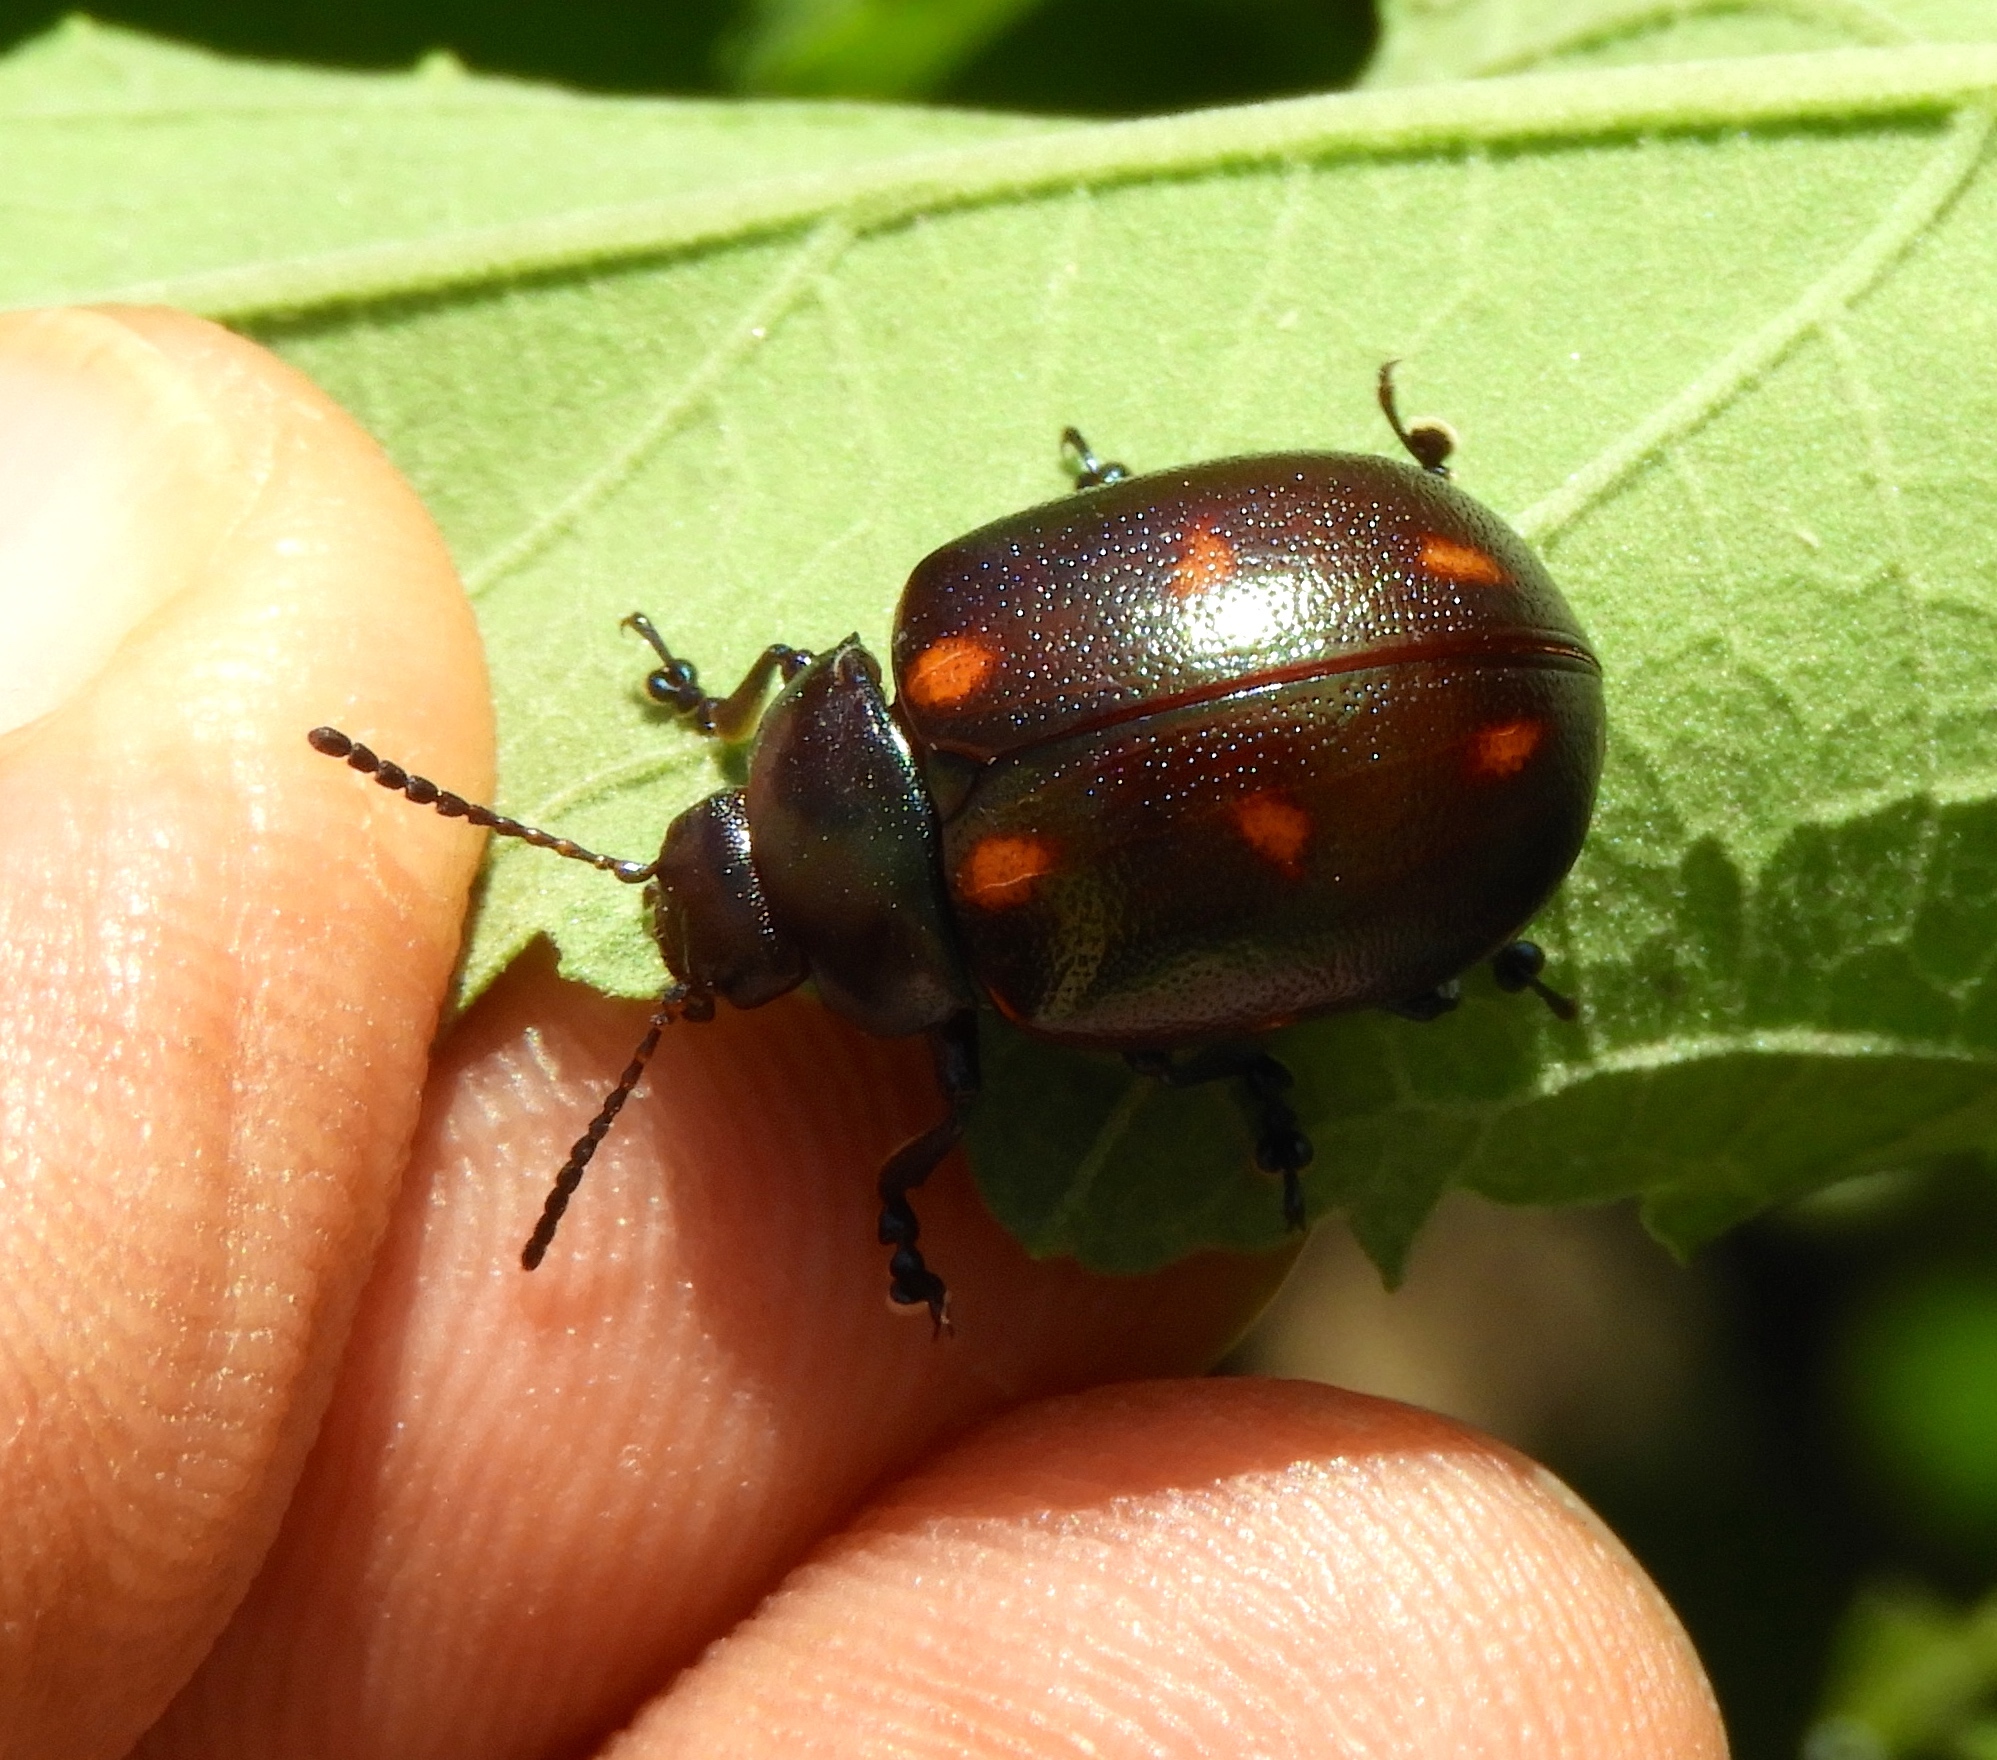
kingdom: Animalia
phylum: Arthropoda
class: Insecta
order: Coleoptera
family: Chrysomelidae
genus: Leptinotarsa
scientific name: Leptinotarsa behrensi
